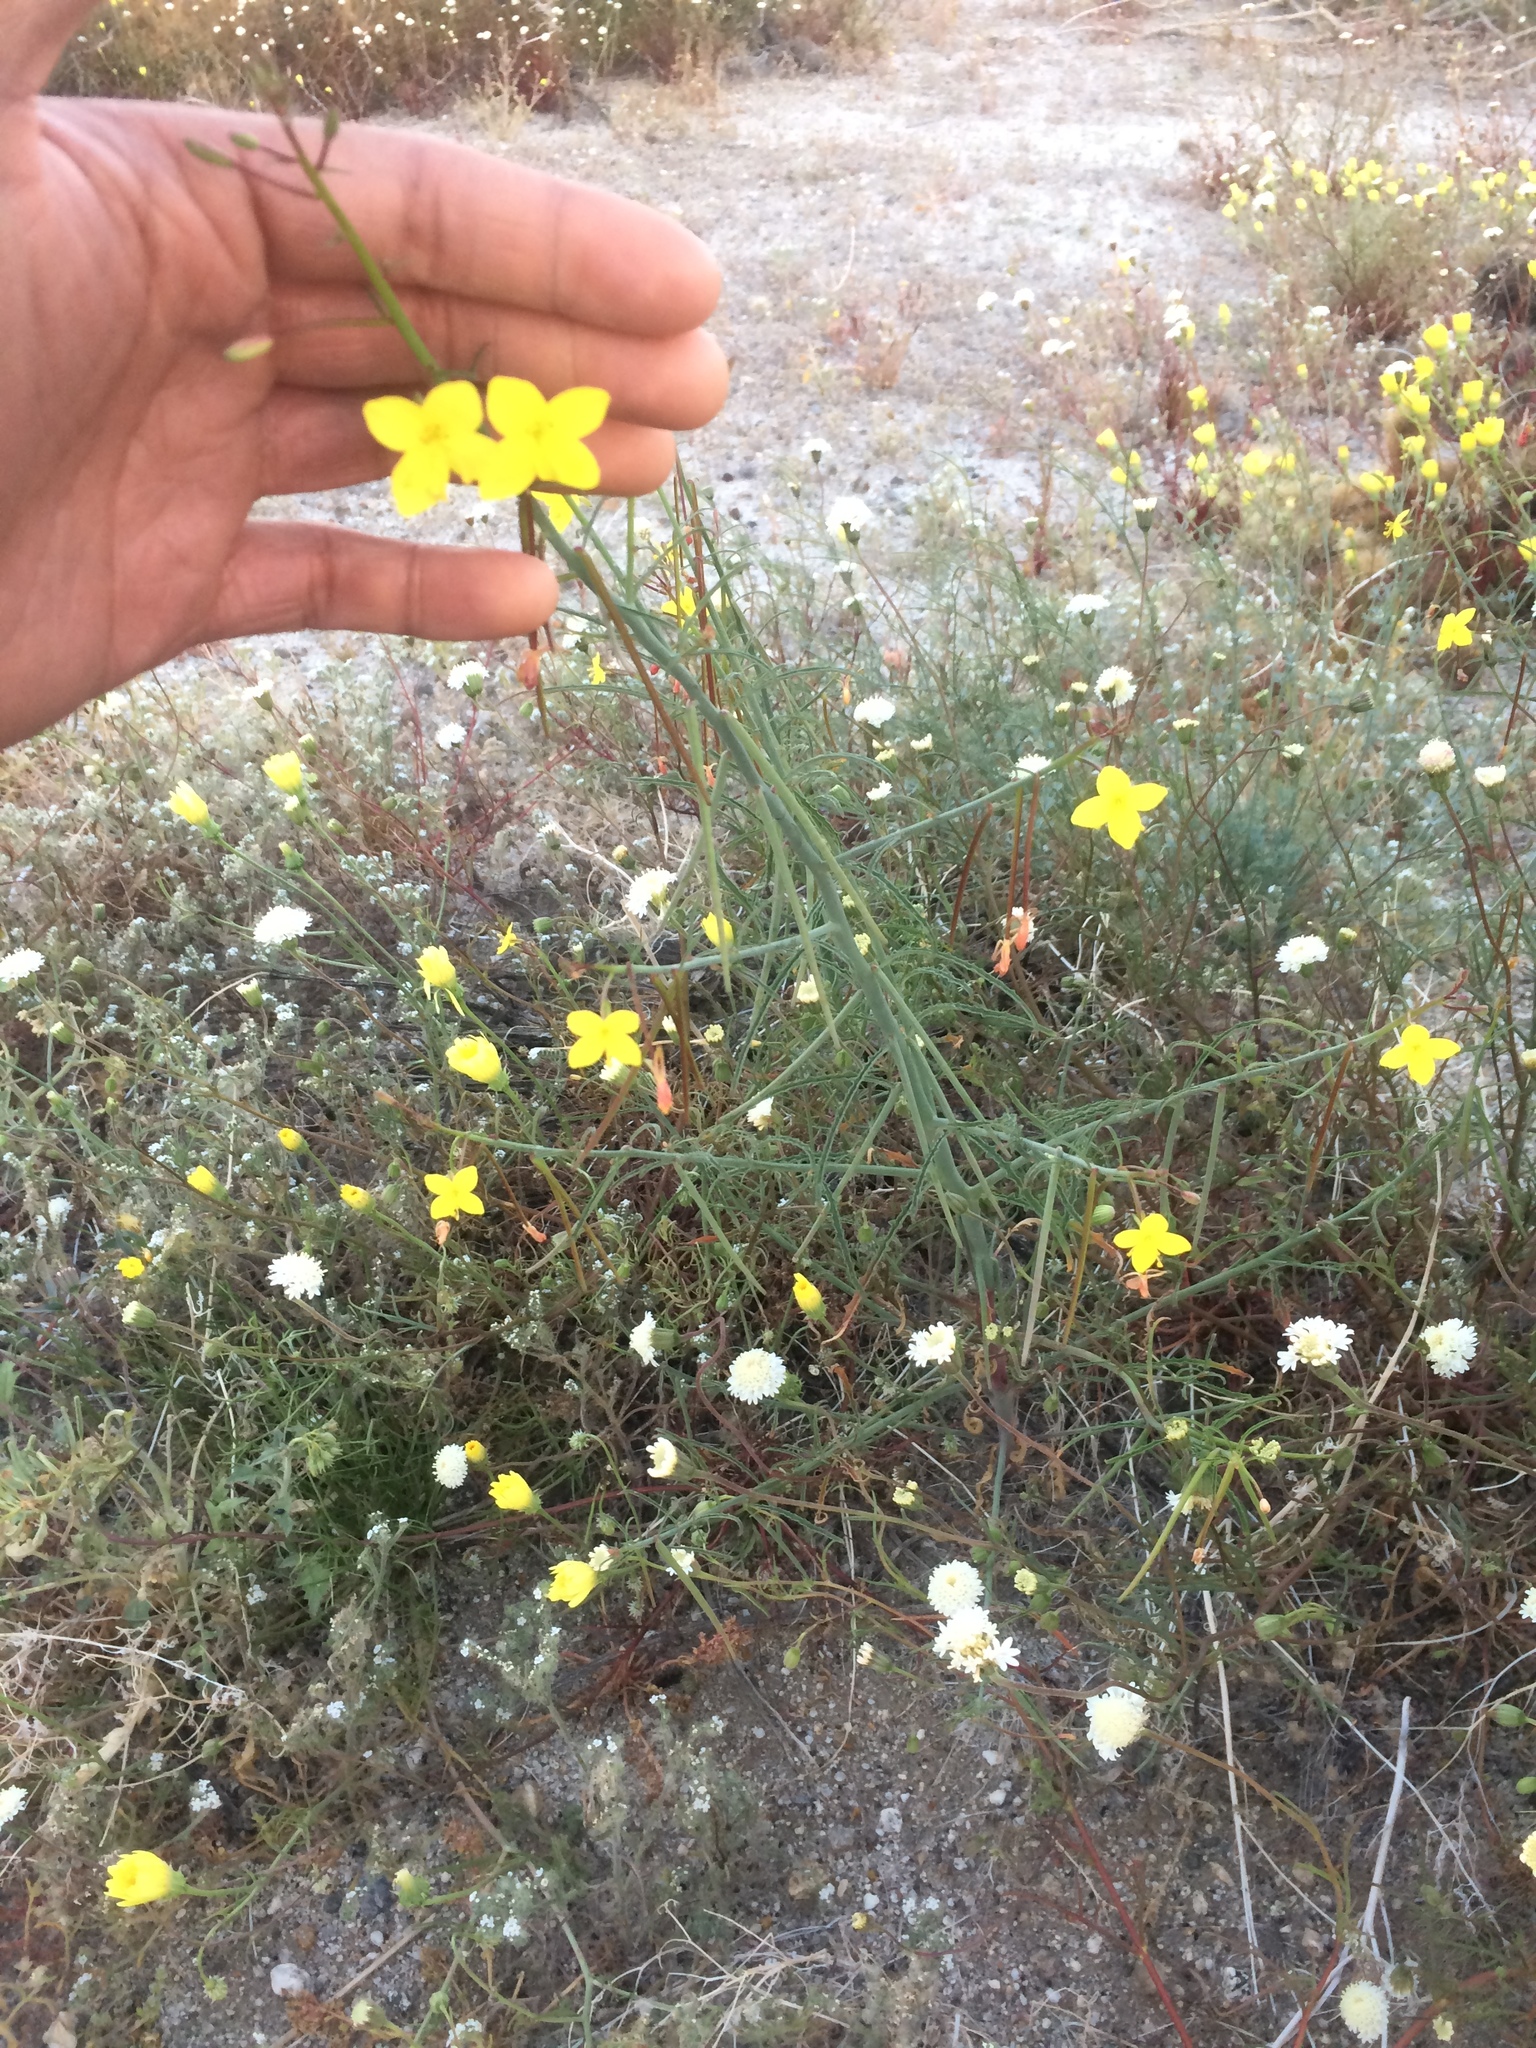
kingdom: Plantae
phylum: Tracheophyta
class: Magnoliopsida
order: Myrtales
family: Onagraceae
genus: Eulobus
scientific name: Eulobus californicus
